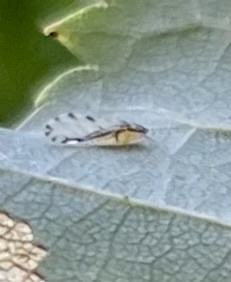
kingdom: Animalia
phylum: Arthropoda
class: Insecta
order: Hemiptera
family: Aphididae
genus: Eucallipterus
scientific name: Eucallipterus tiliae
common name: Aphid
